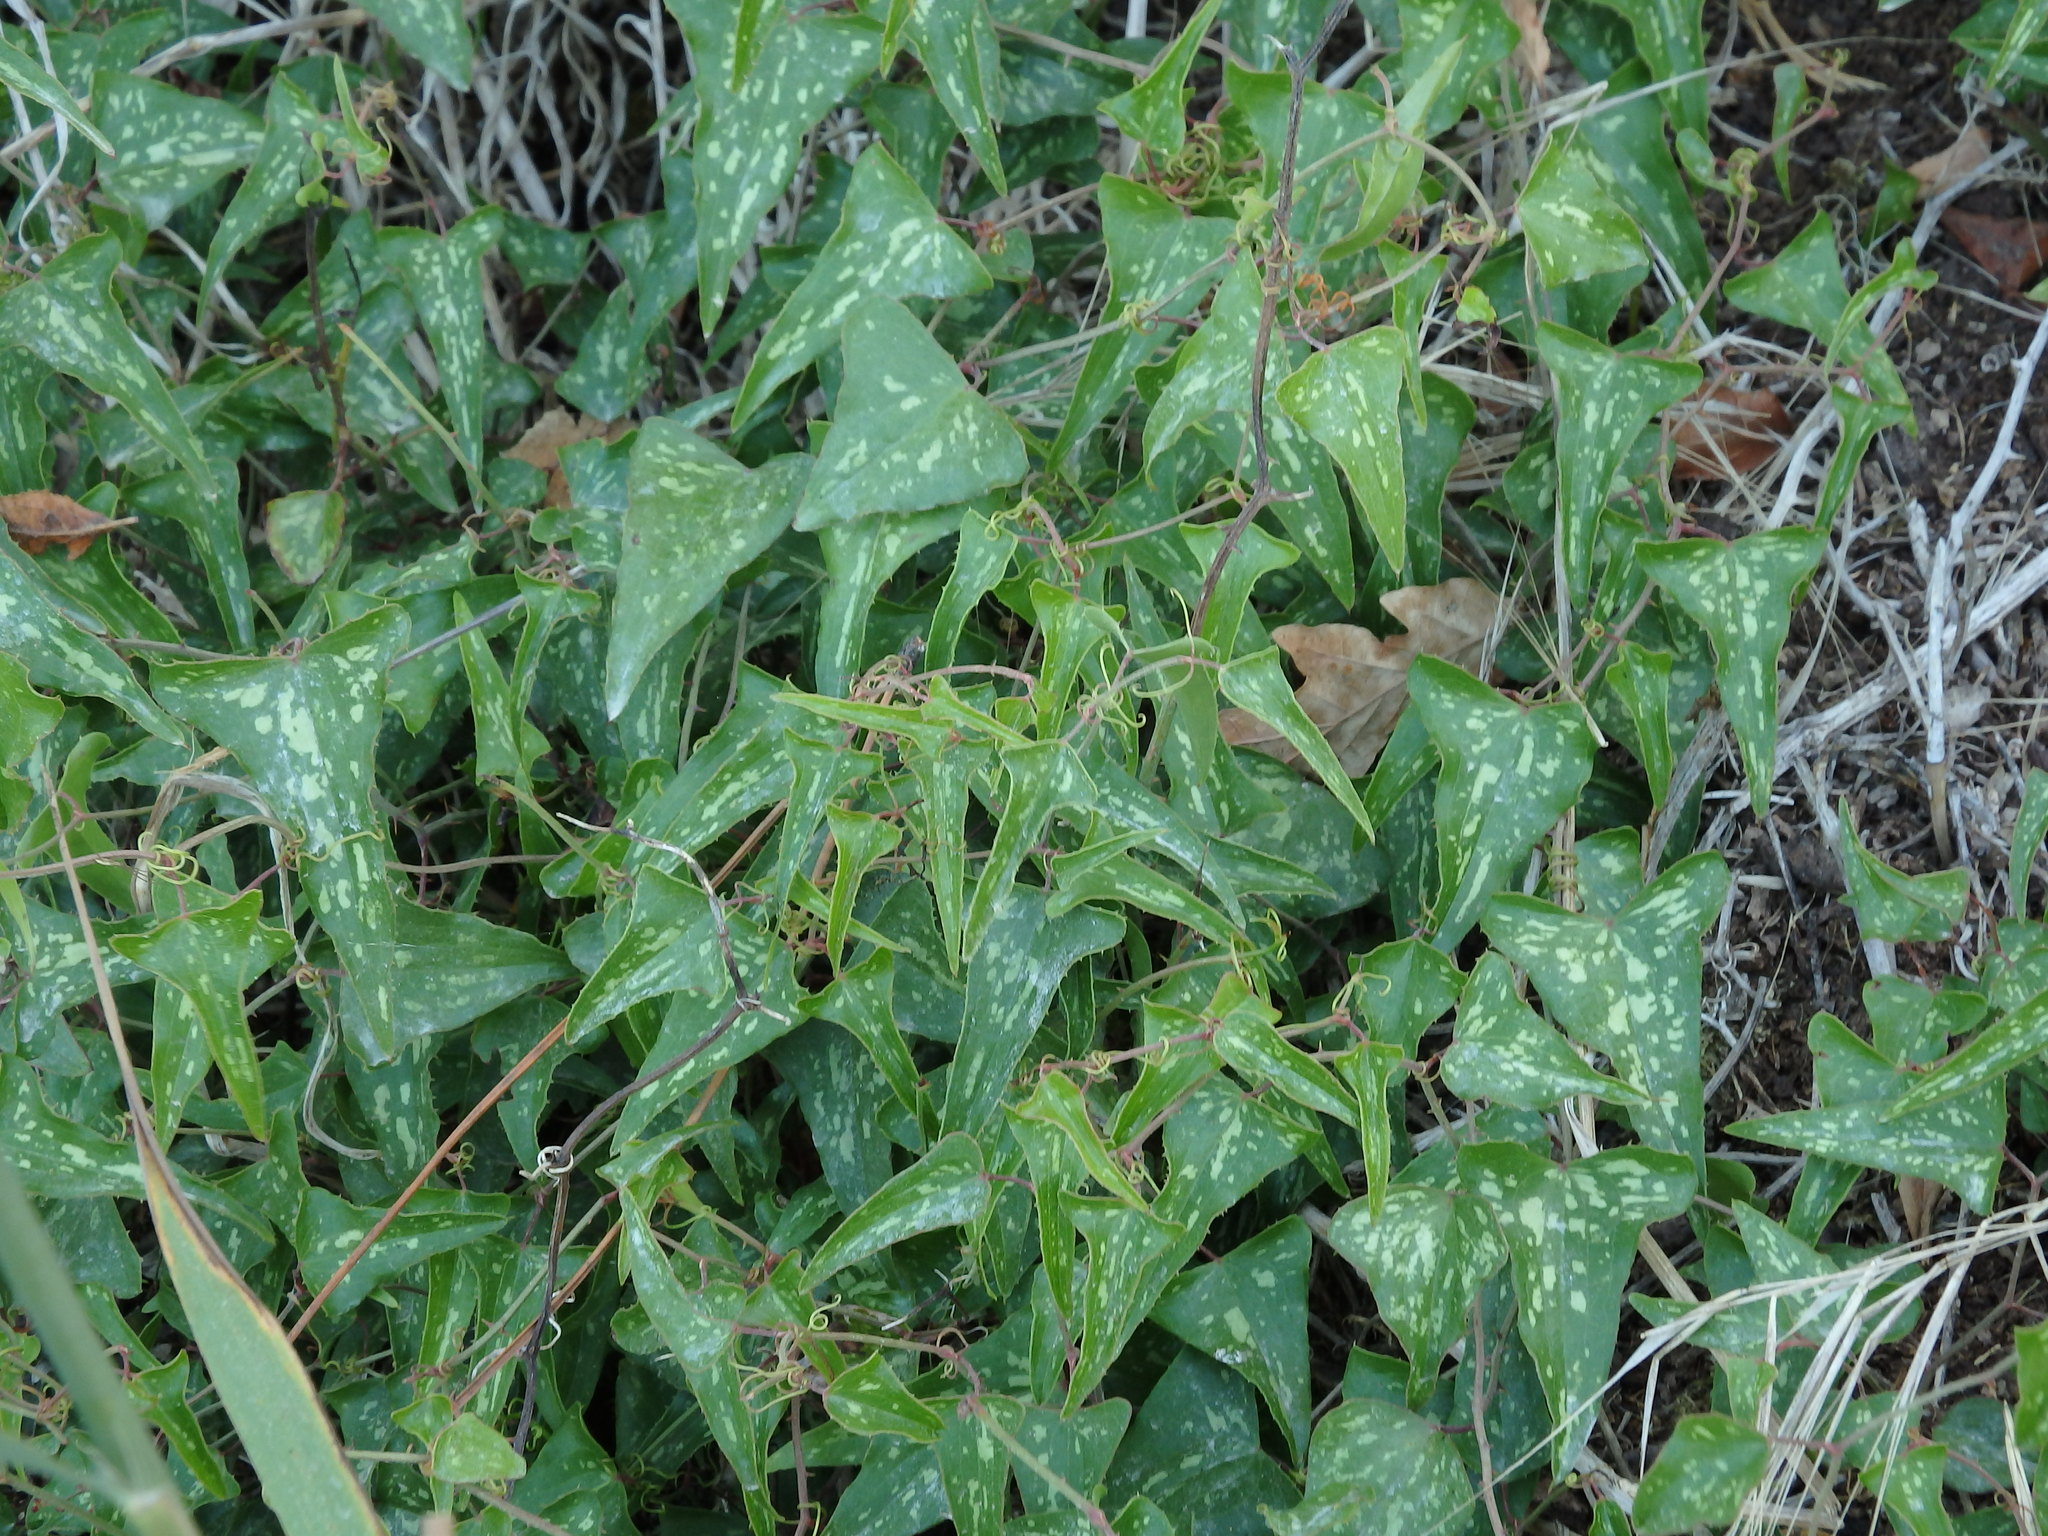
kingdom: Plantae
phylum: Tracheophyta
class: Liliopsida
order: Liliales
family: Smilacaceae
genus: Smilax
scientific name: Smilax aspera
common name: Common smilax
